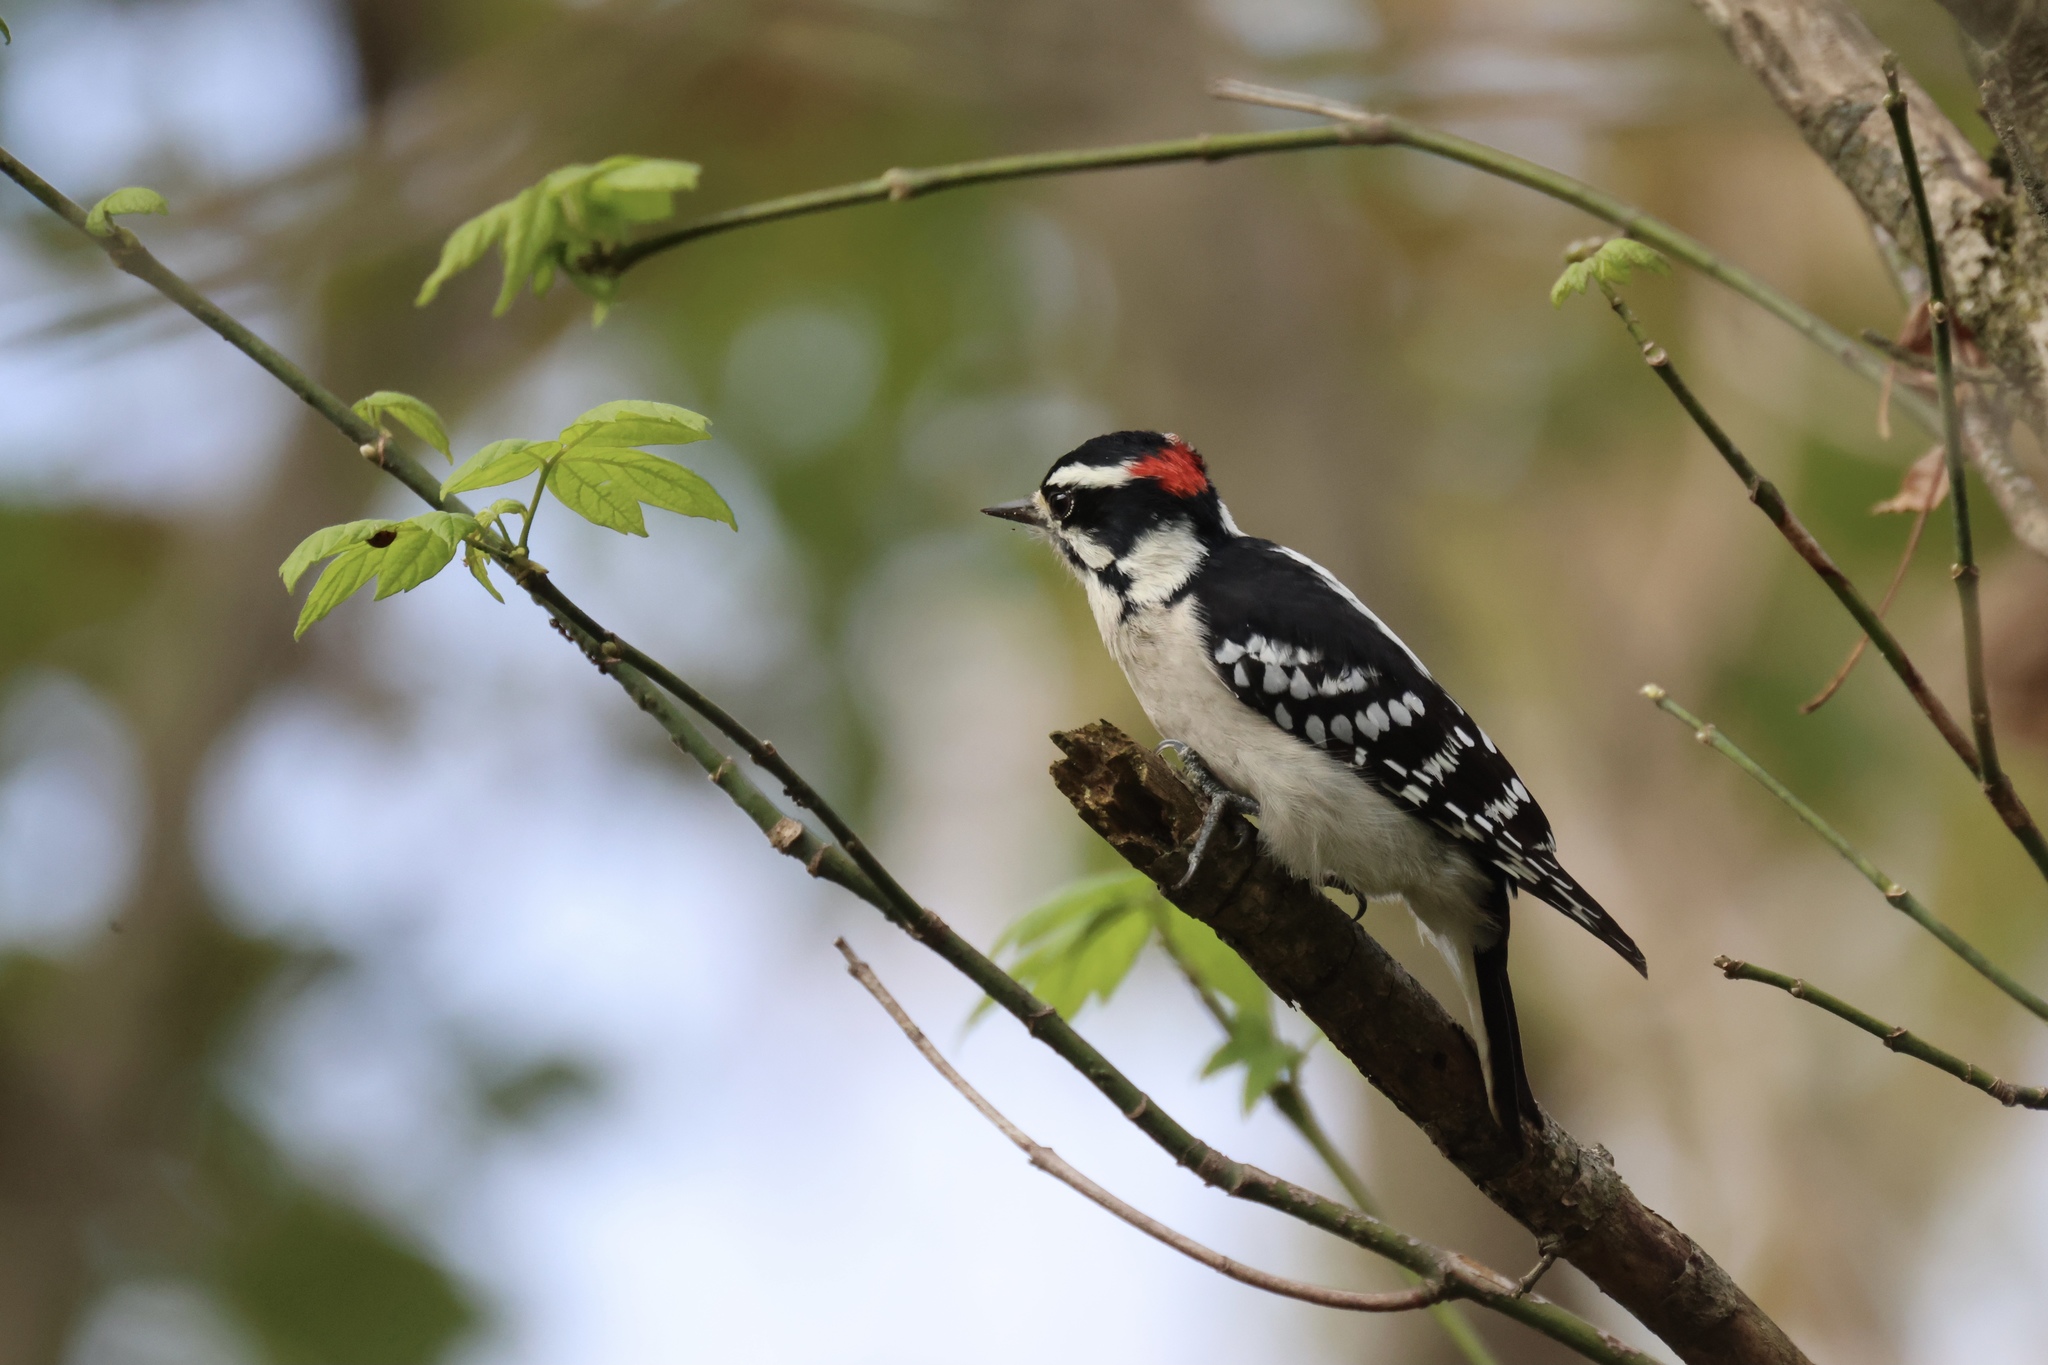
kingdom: Animalia
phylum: Chordata
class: Aves
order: Piciformes
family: Picidae
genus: Dryobates
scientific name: Dryobates pubescens
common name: Downy woodpecker
